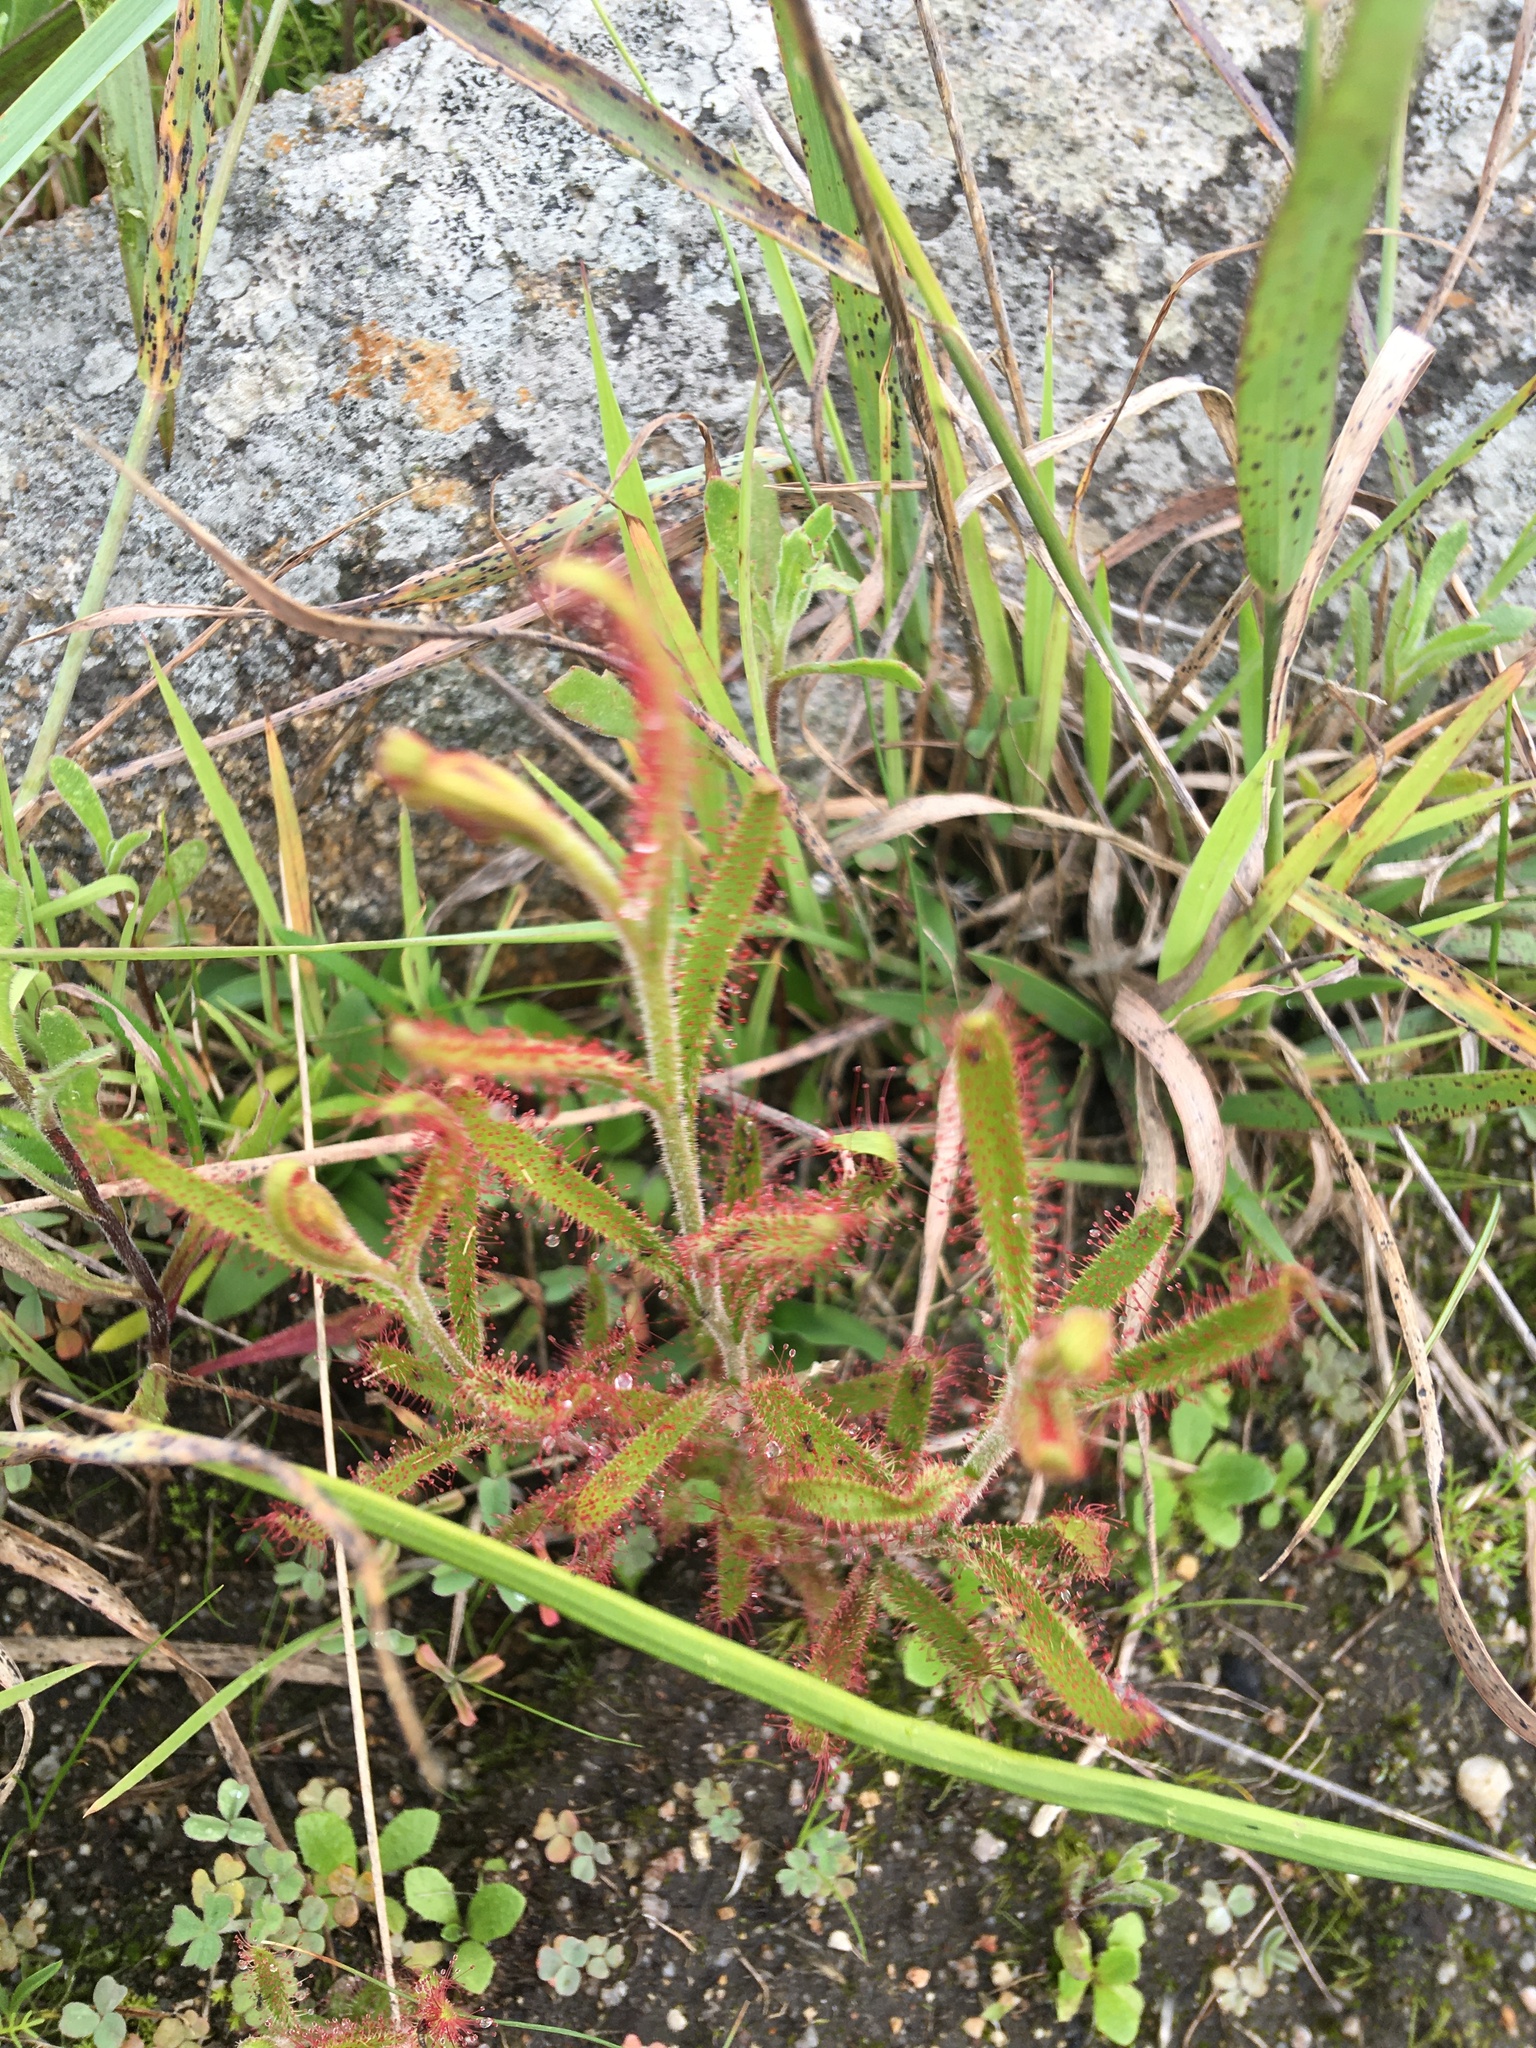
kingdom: Plantae
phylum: Tracheophyta
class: Magnoliopsida
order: Caryophyllales
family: Droseraceae
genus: Drosera
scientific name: Drosera cistiflora
